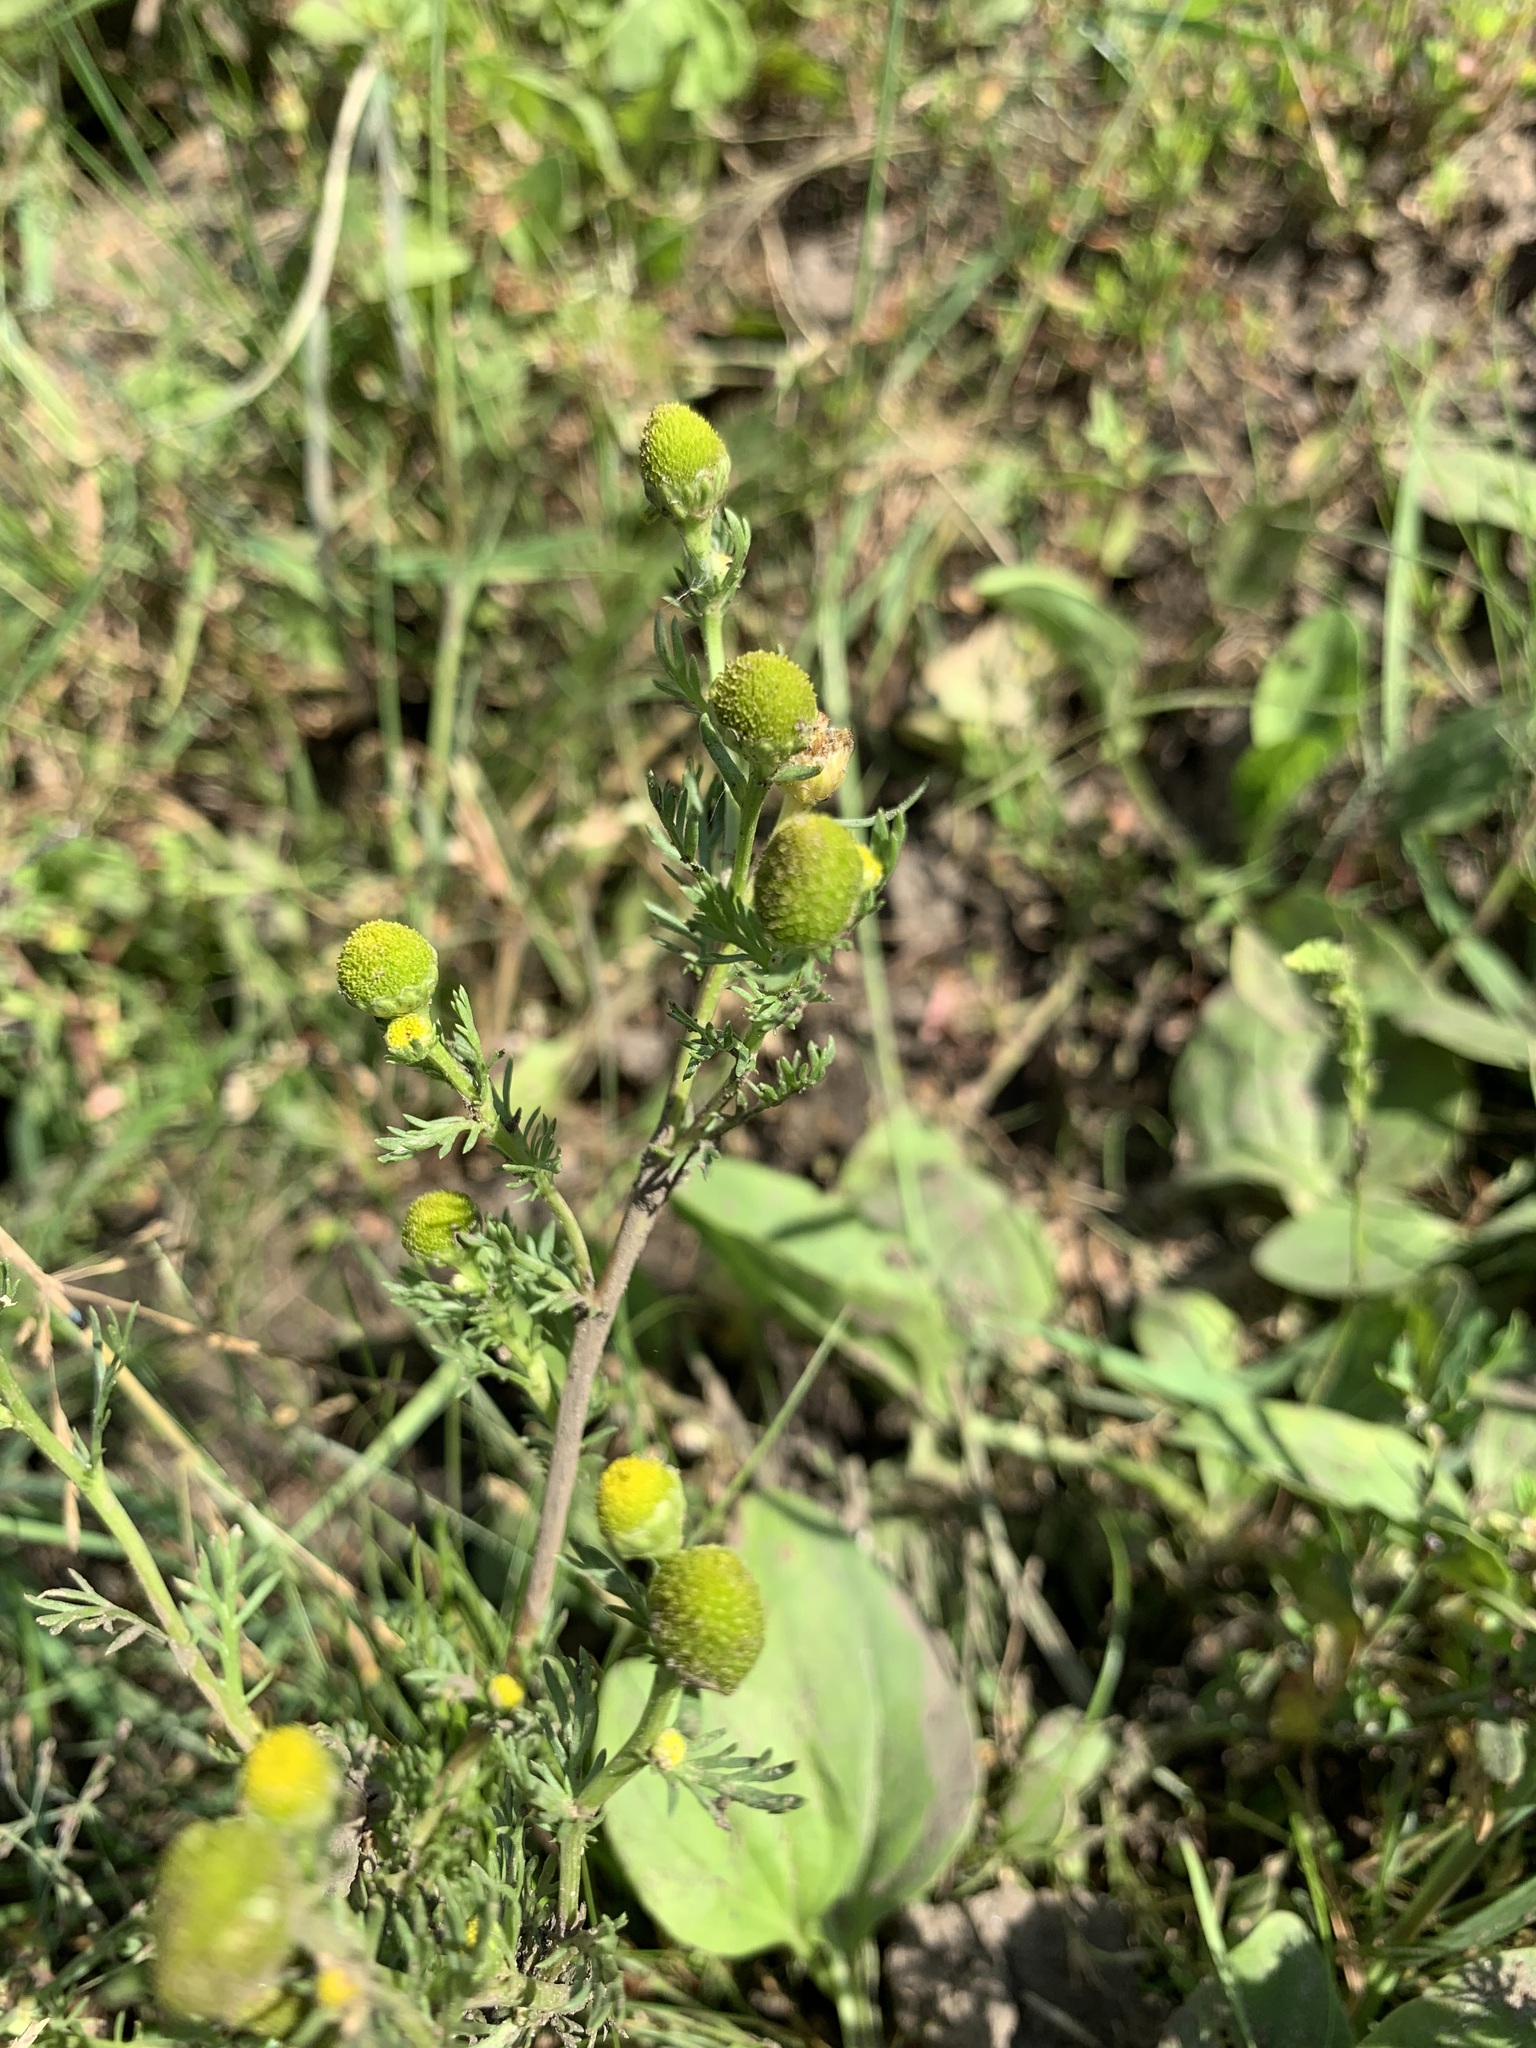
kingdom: Plantae
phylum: Tracheophyta
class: Magnoliopsida
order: Asterales
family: Asteraceae
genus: Matricaria
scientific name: Matricaria discoidea
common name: Disc mayweed
